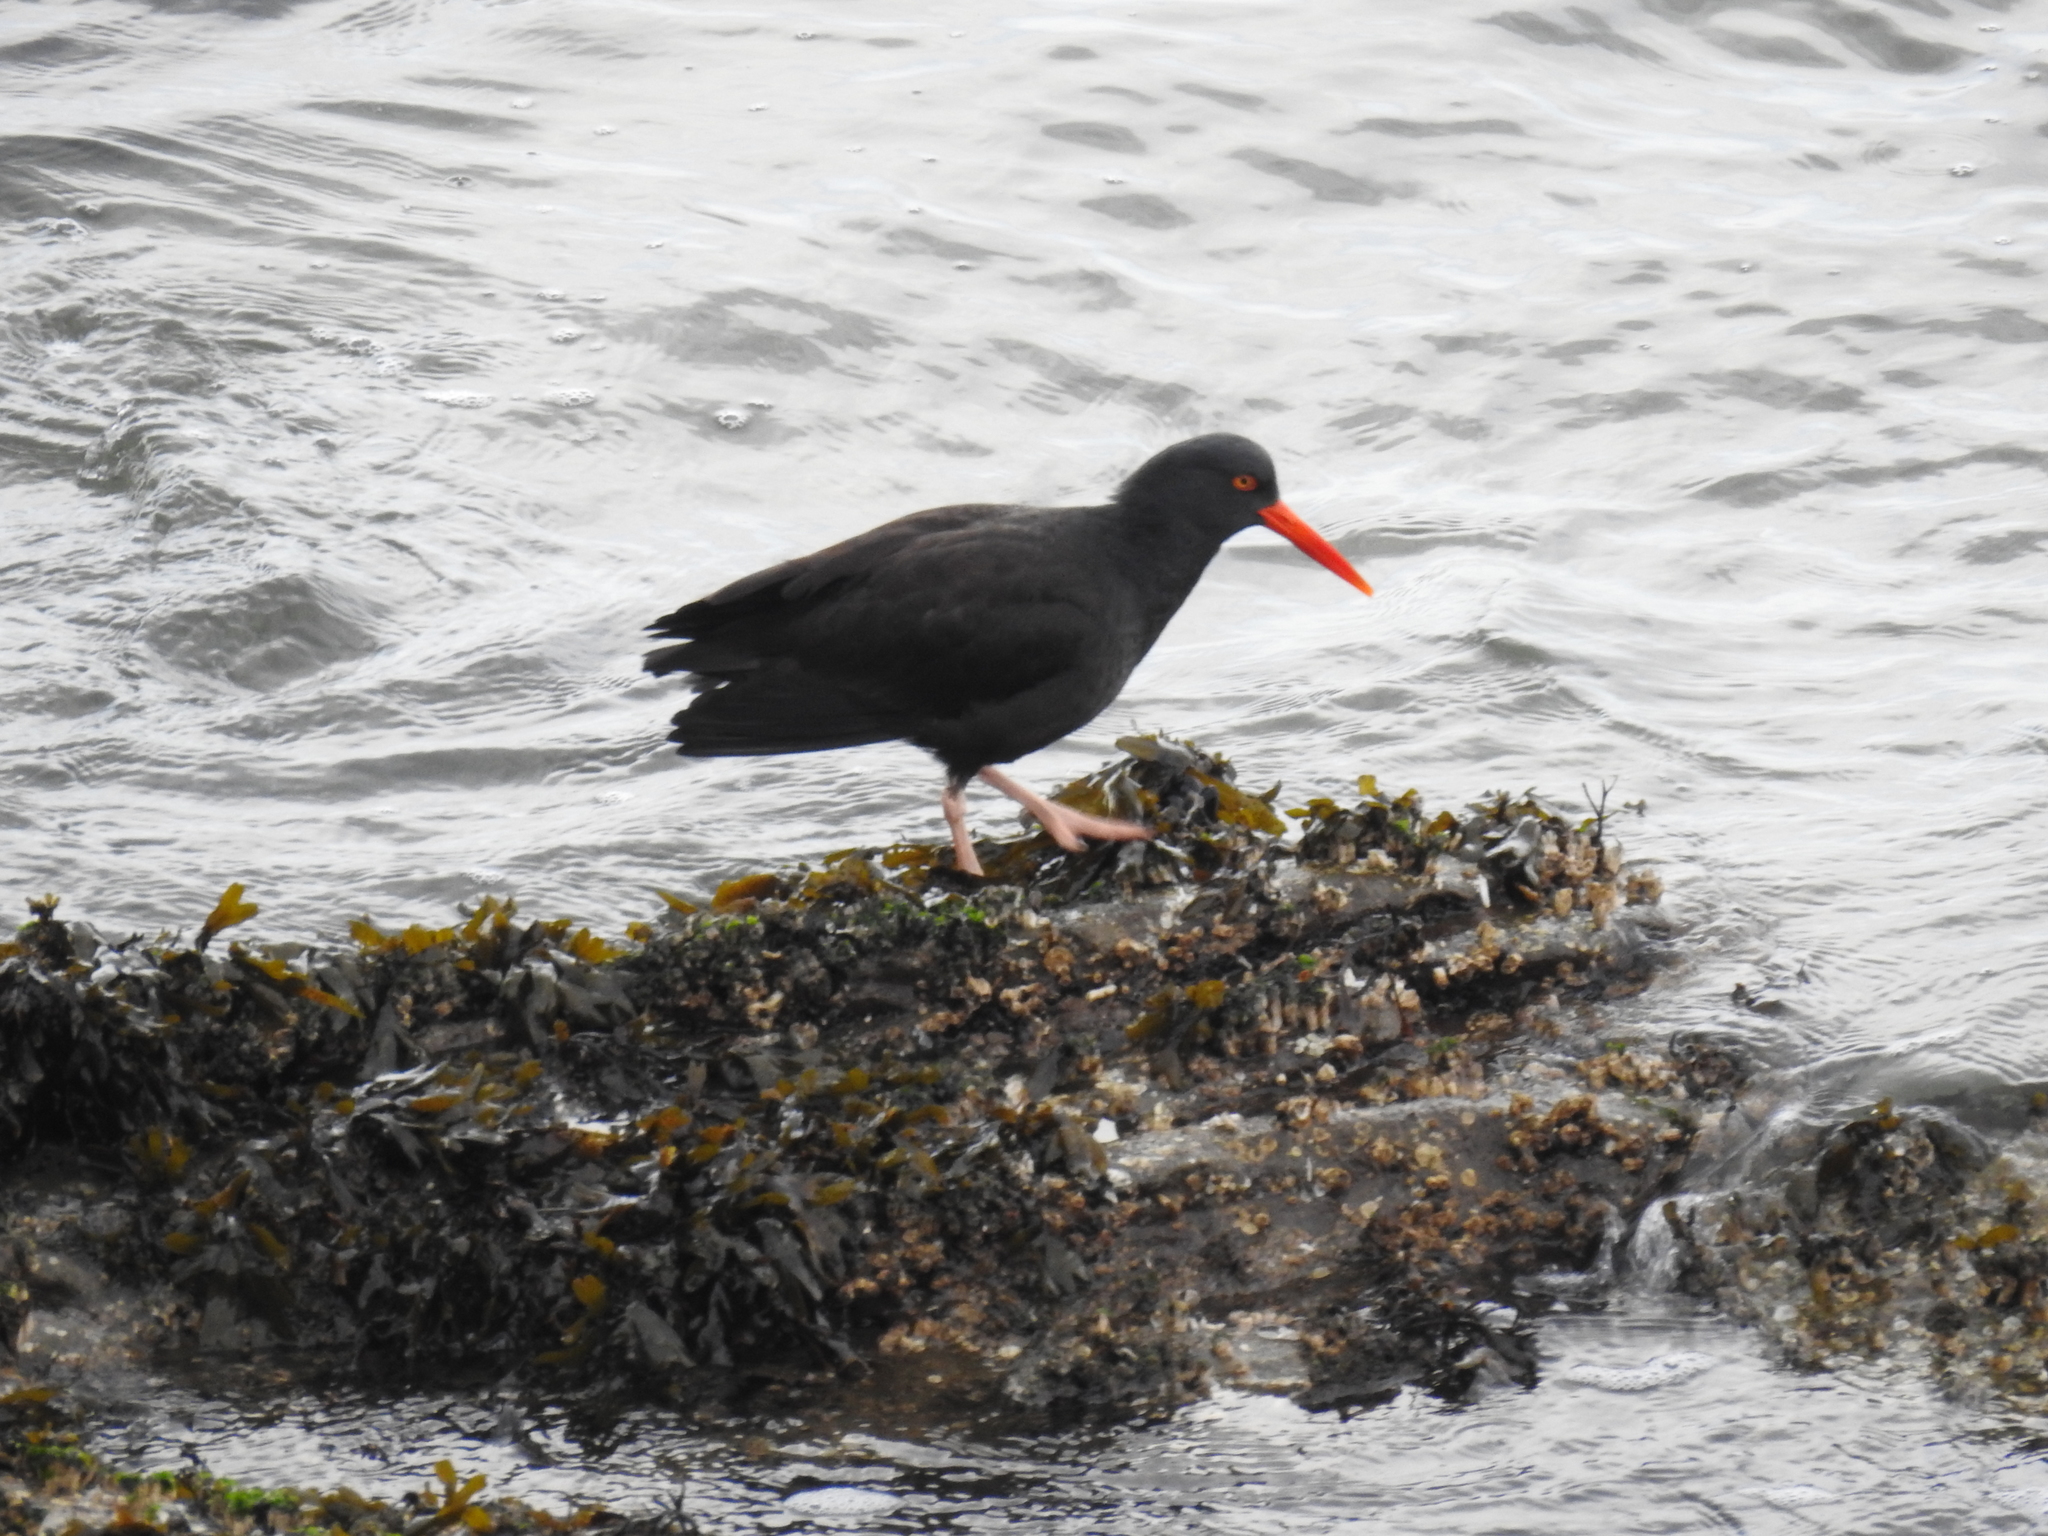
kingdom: Animalia
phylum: Chordata
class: Aves
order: Charadriiformes
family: Haematopodidae
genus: Haematopus
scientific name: Haematopus bachmani
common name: Black oystercatcher
